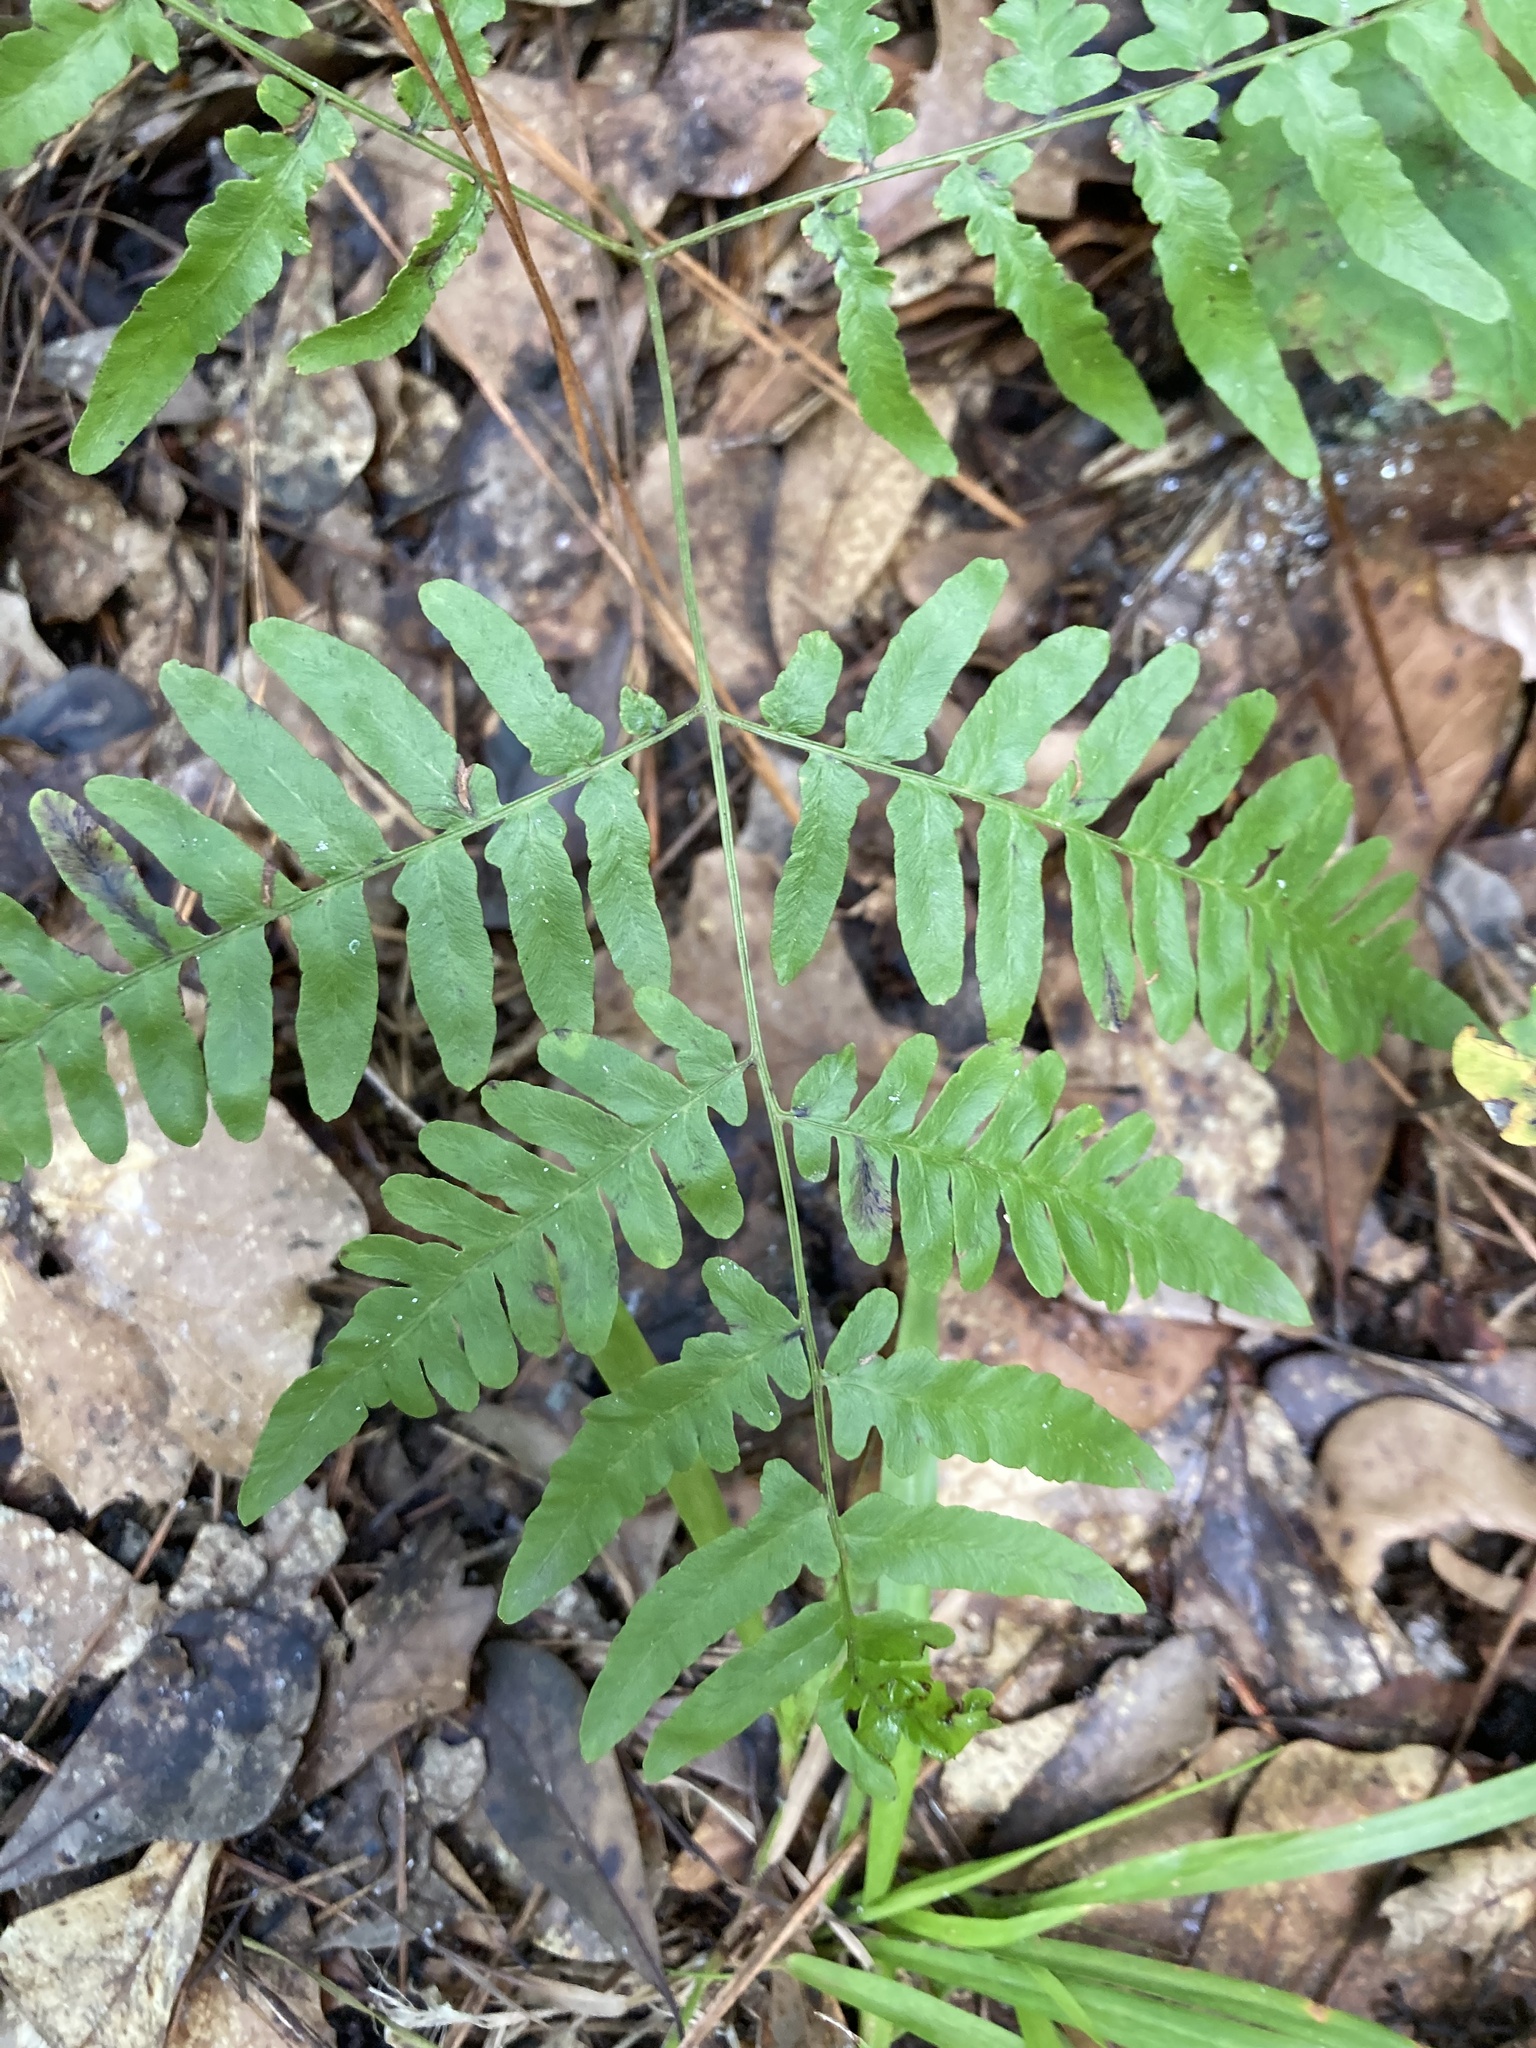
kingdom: Plantae
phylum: Tracheophyta
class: Polypodiopsida
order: Polypodiales
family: Dennstaedtiaceae
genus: Pteridium
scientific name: Pteridium aquilinum
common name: Bracken
